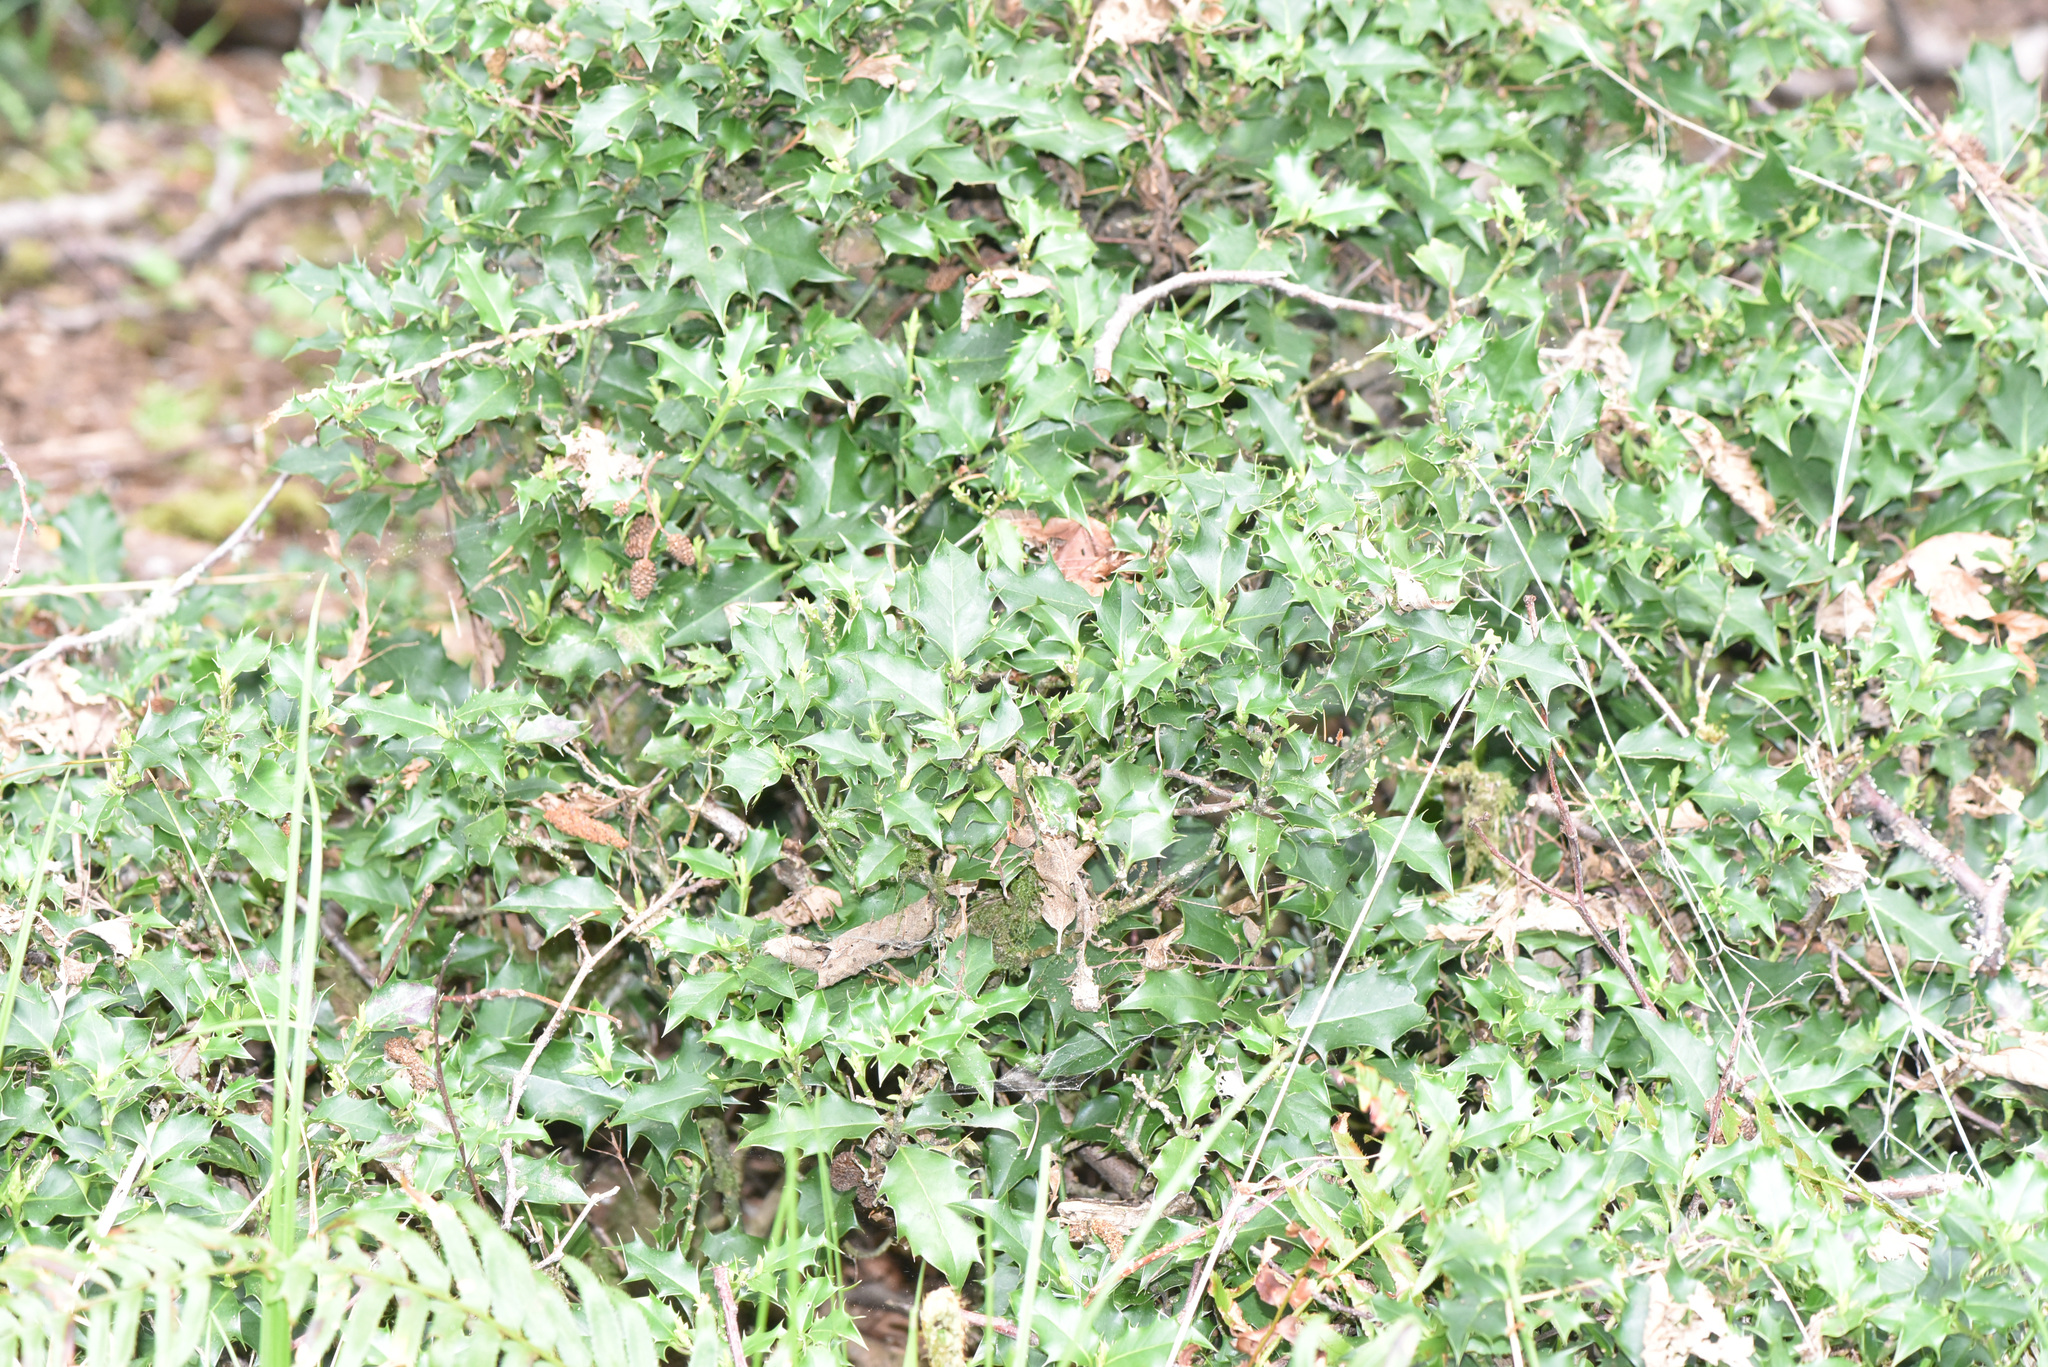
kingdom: Plantae
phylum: Tracheophyta
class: Magnoliopsida
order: Aquifoliales
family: Aquifoliaceae
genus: Ilex
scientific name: Ilex aquifolium
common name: English holly
